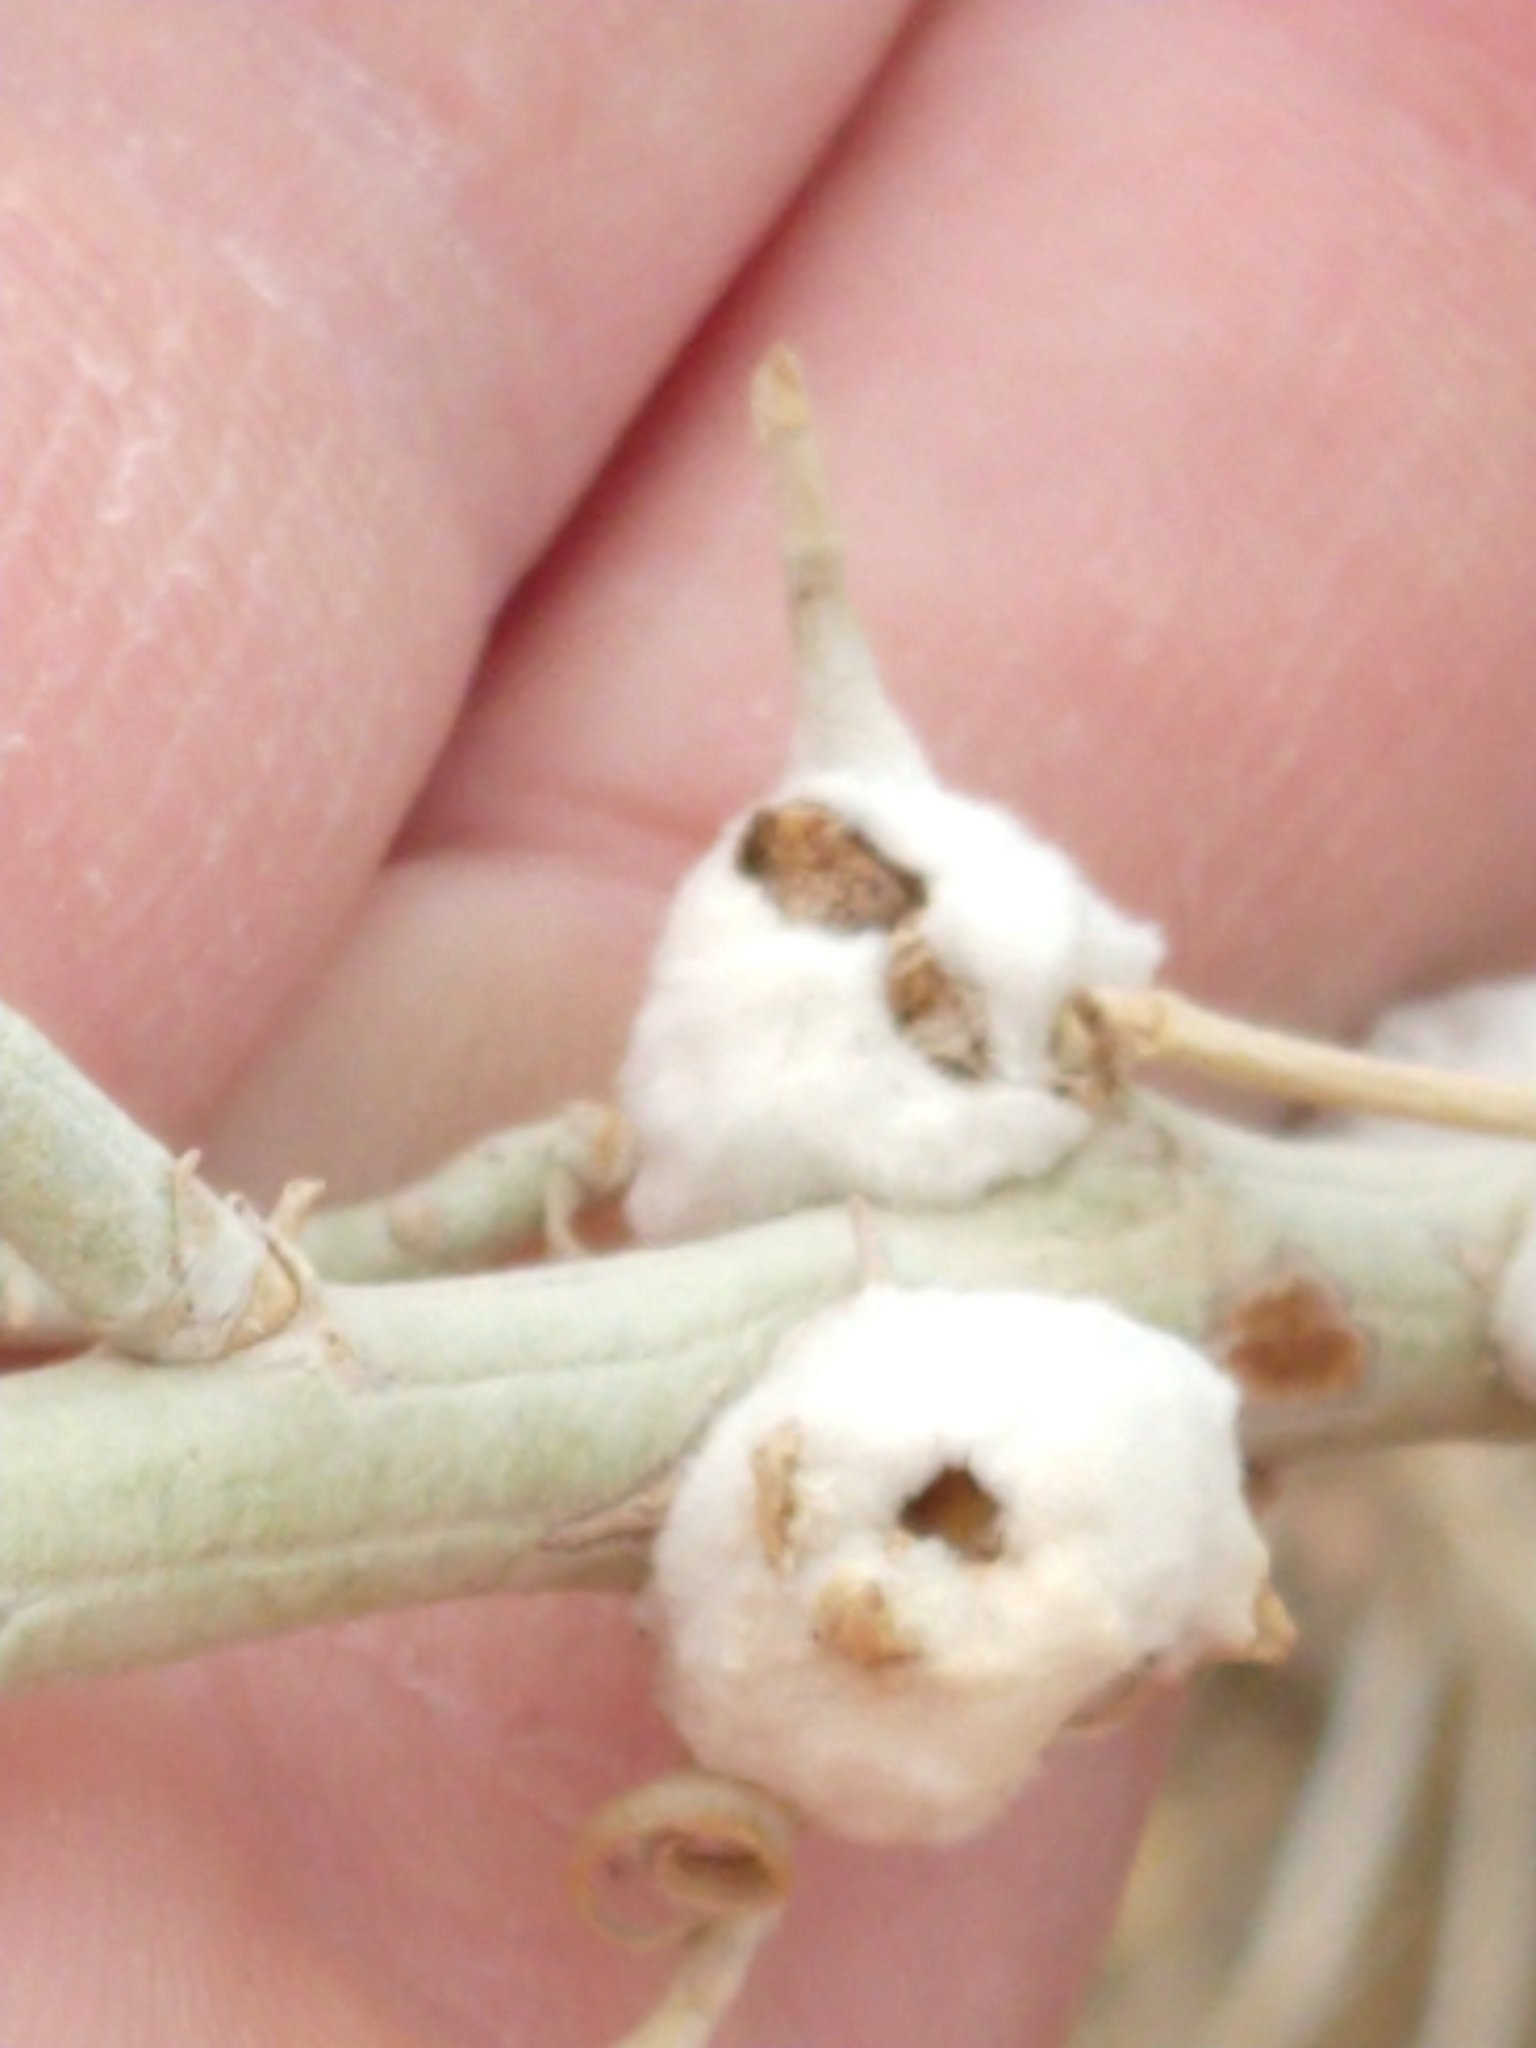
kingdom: Animalia
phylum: Arthropoda
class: Insecta
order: Diptera
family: Tephritidae
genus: Aciurina
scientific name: Aciurina bigeloviae
